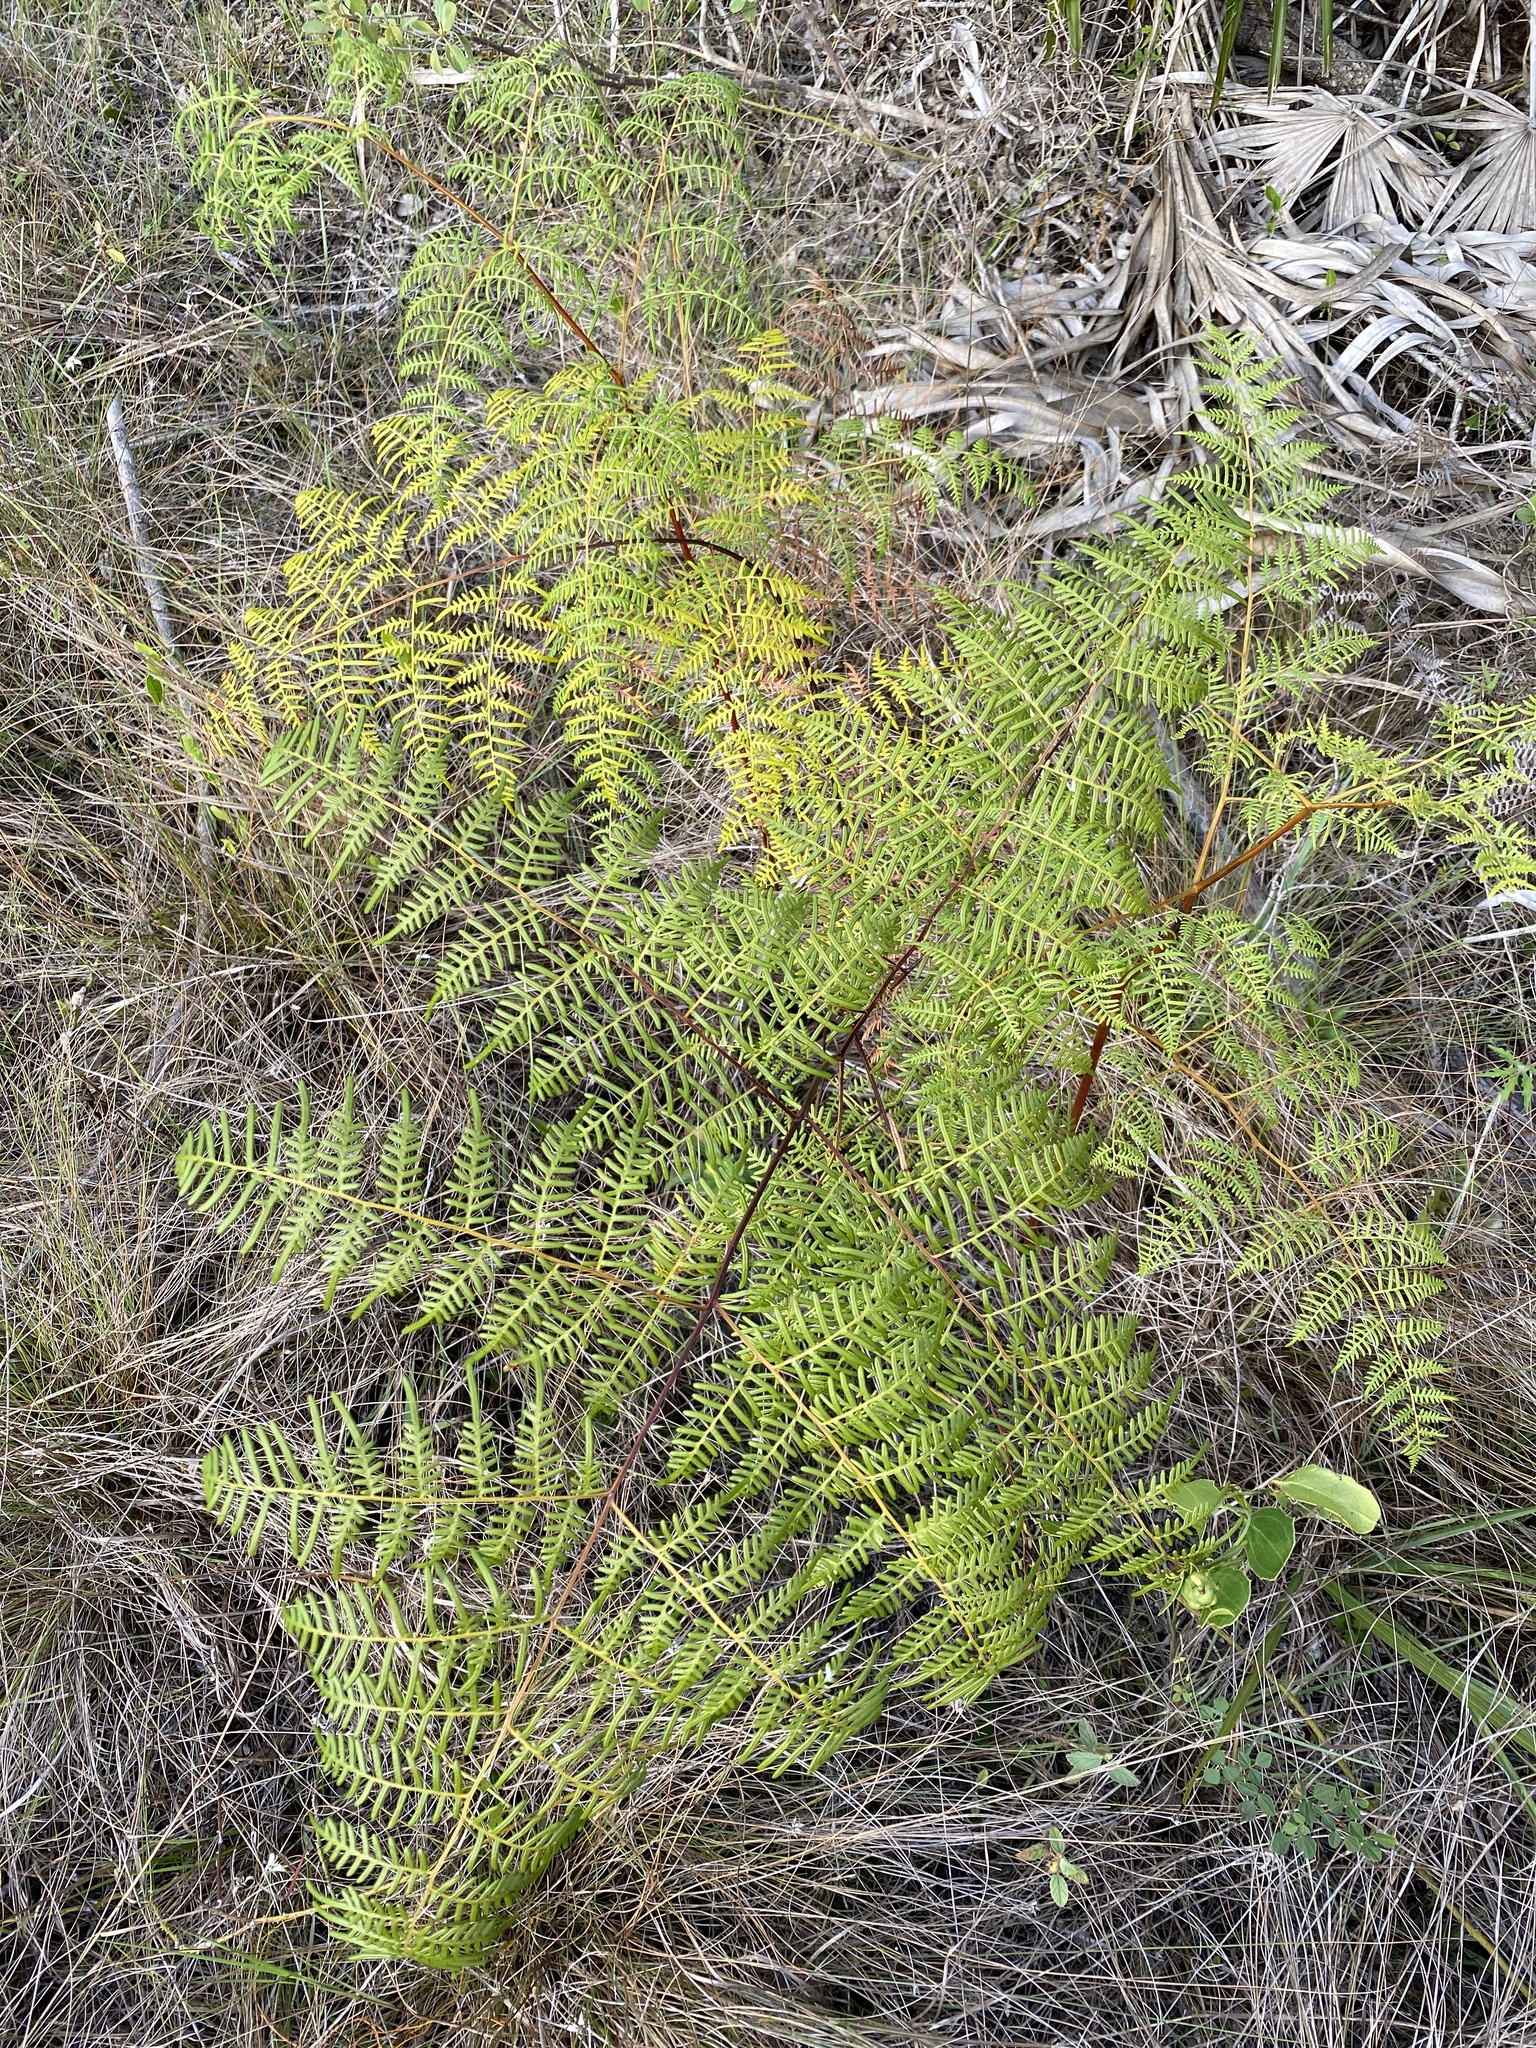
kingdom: Plantae
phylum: Tracheophyta
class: Polypodiopsida
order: Polypodiales
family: Dennstaedtiaceae
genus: Pteridium
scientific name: Pteridium caudatum
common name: Southern bracken fern
